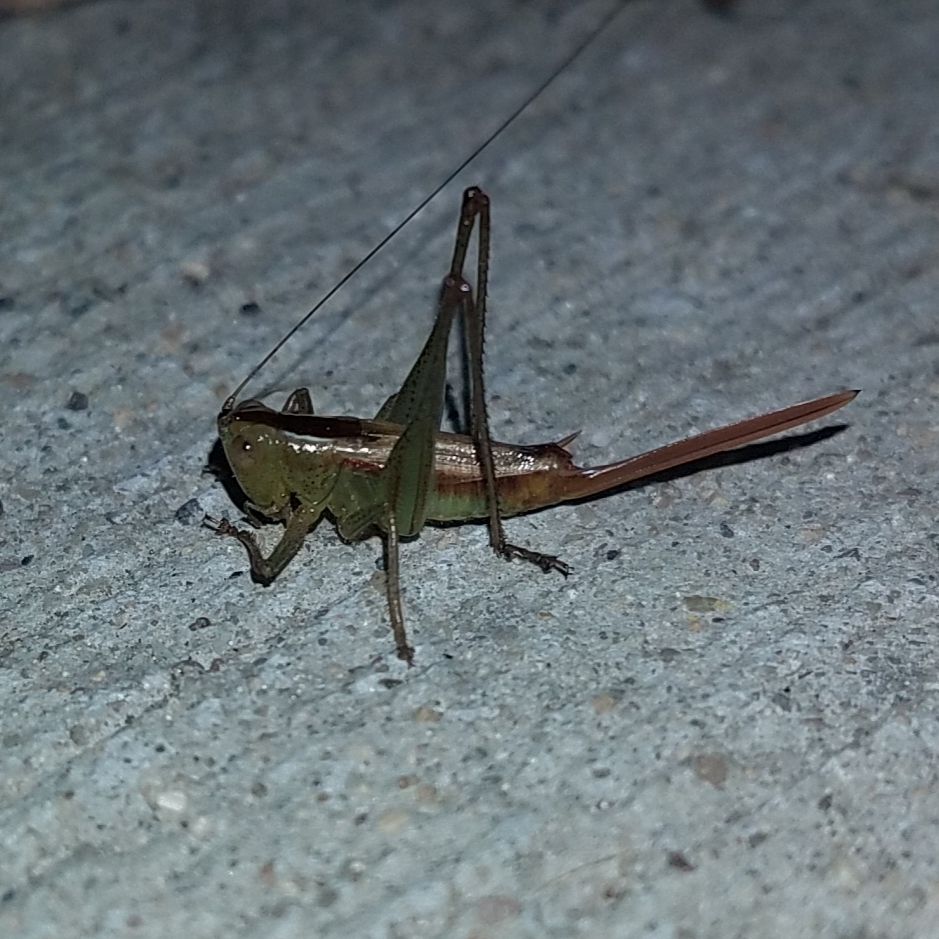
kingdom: Animalia
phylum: Arthropoda
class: Insecta
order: Orthoptera
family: Tettigoniidae
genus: Conocephalus
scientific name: Conocephalus brevipennis
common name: Short-winged meadow katydid
